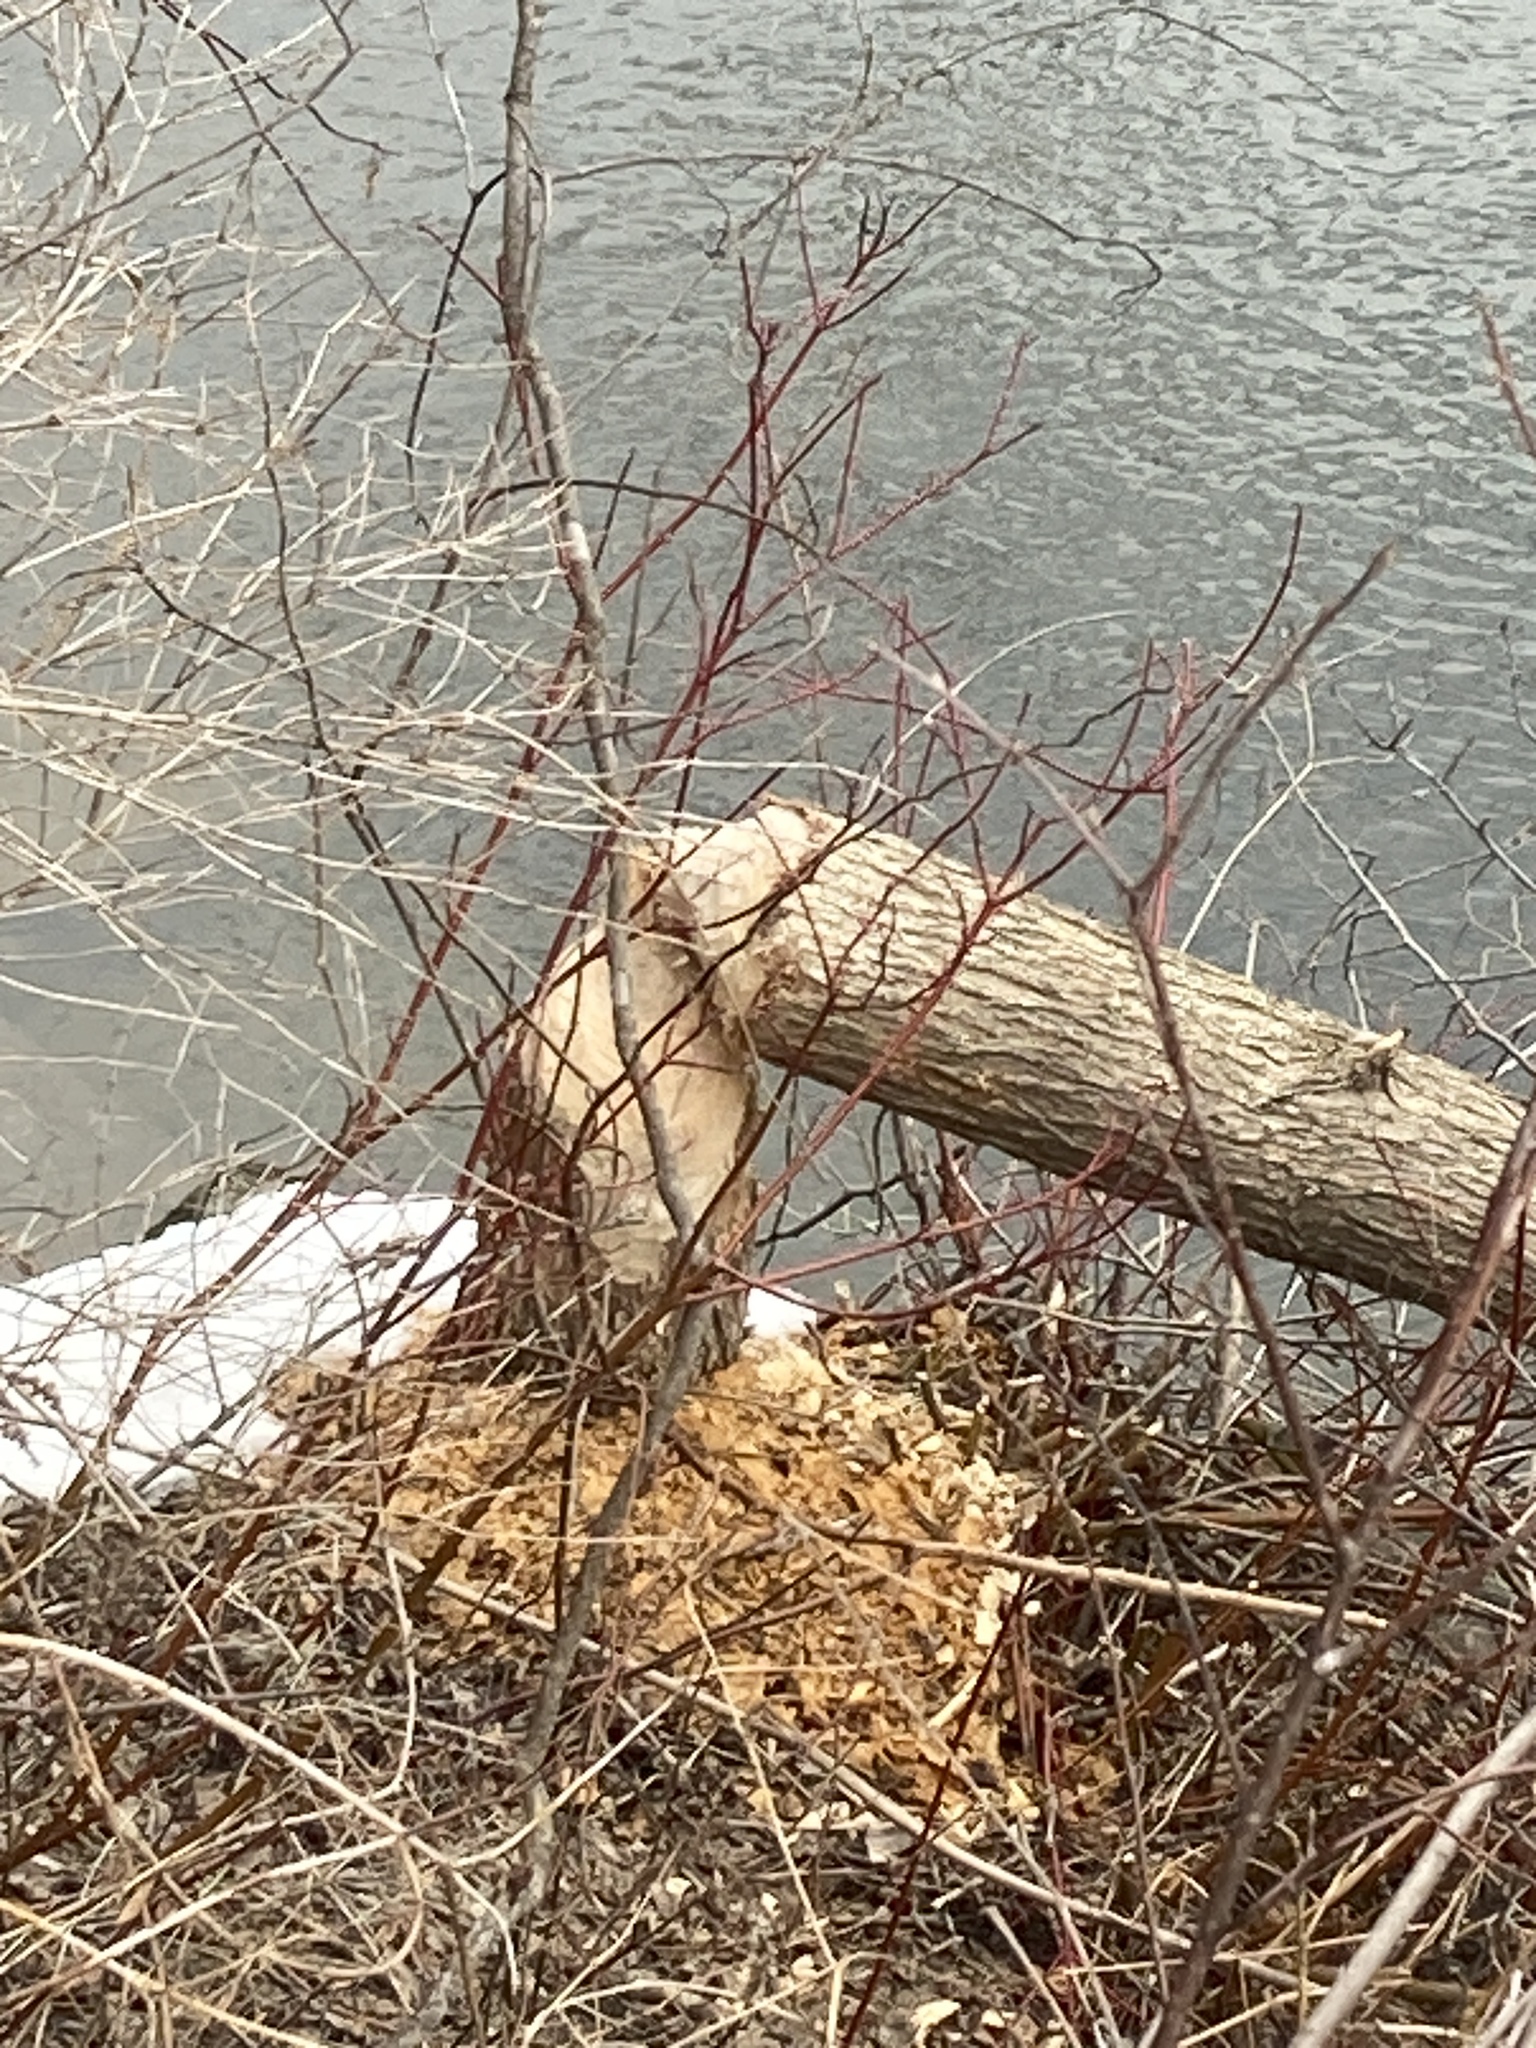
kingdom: Animalia
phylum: Chordata
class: Mammalia
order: Rodentia
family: Castoridae
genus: Castor
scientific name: Castor canadensis
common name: American beaver
